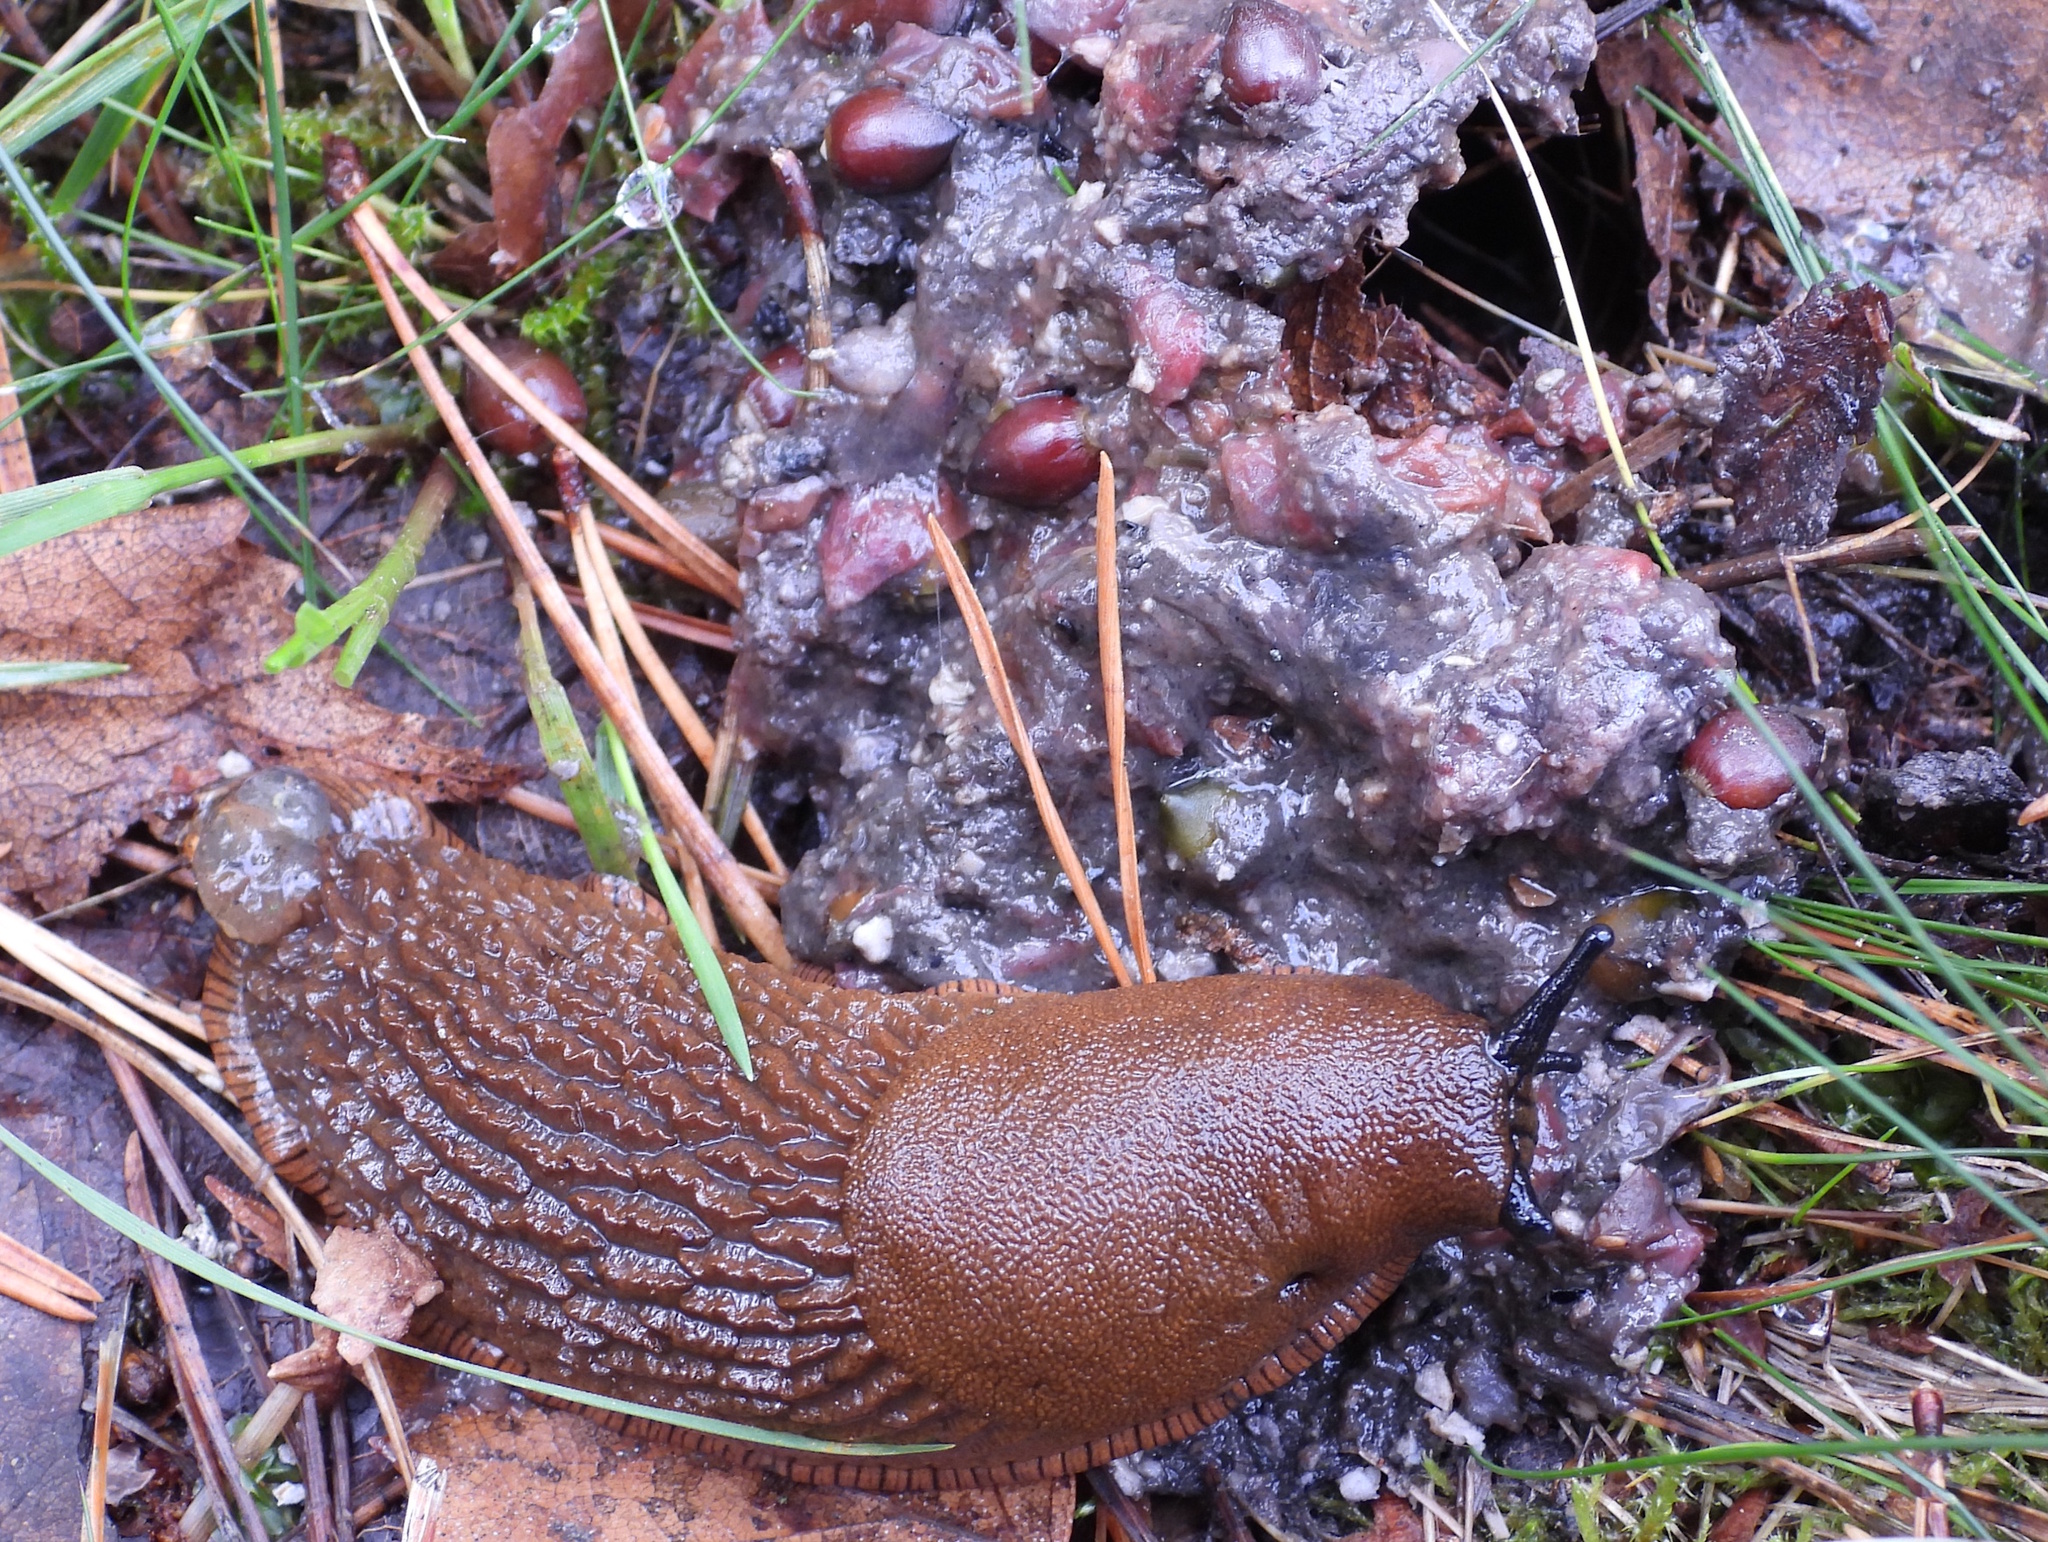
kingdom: Animalia
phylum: Mollusca
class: Gastropoda
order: Stylommatophora
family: Arionidae
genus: Arion
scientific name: Arion vulgaris
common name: Lusitanian slug
